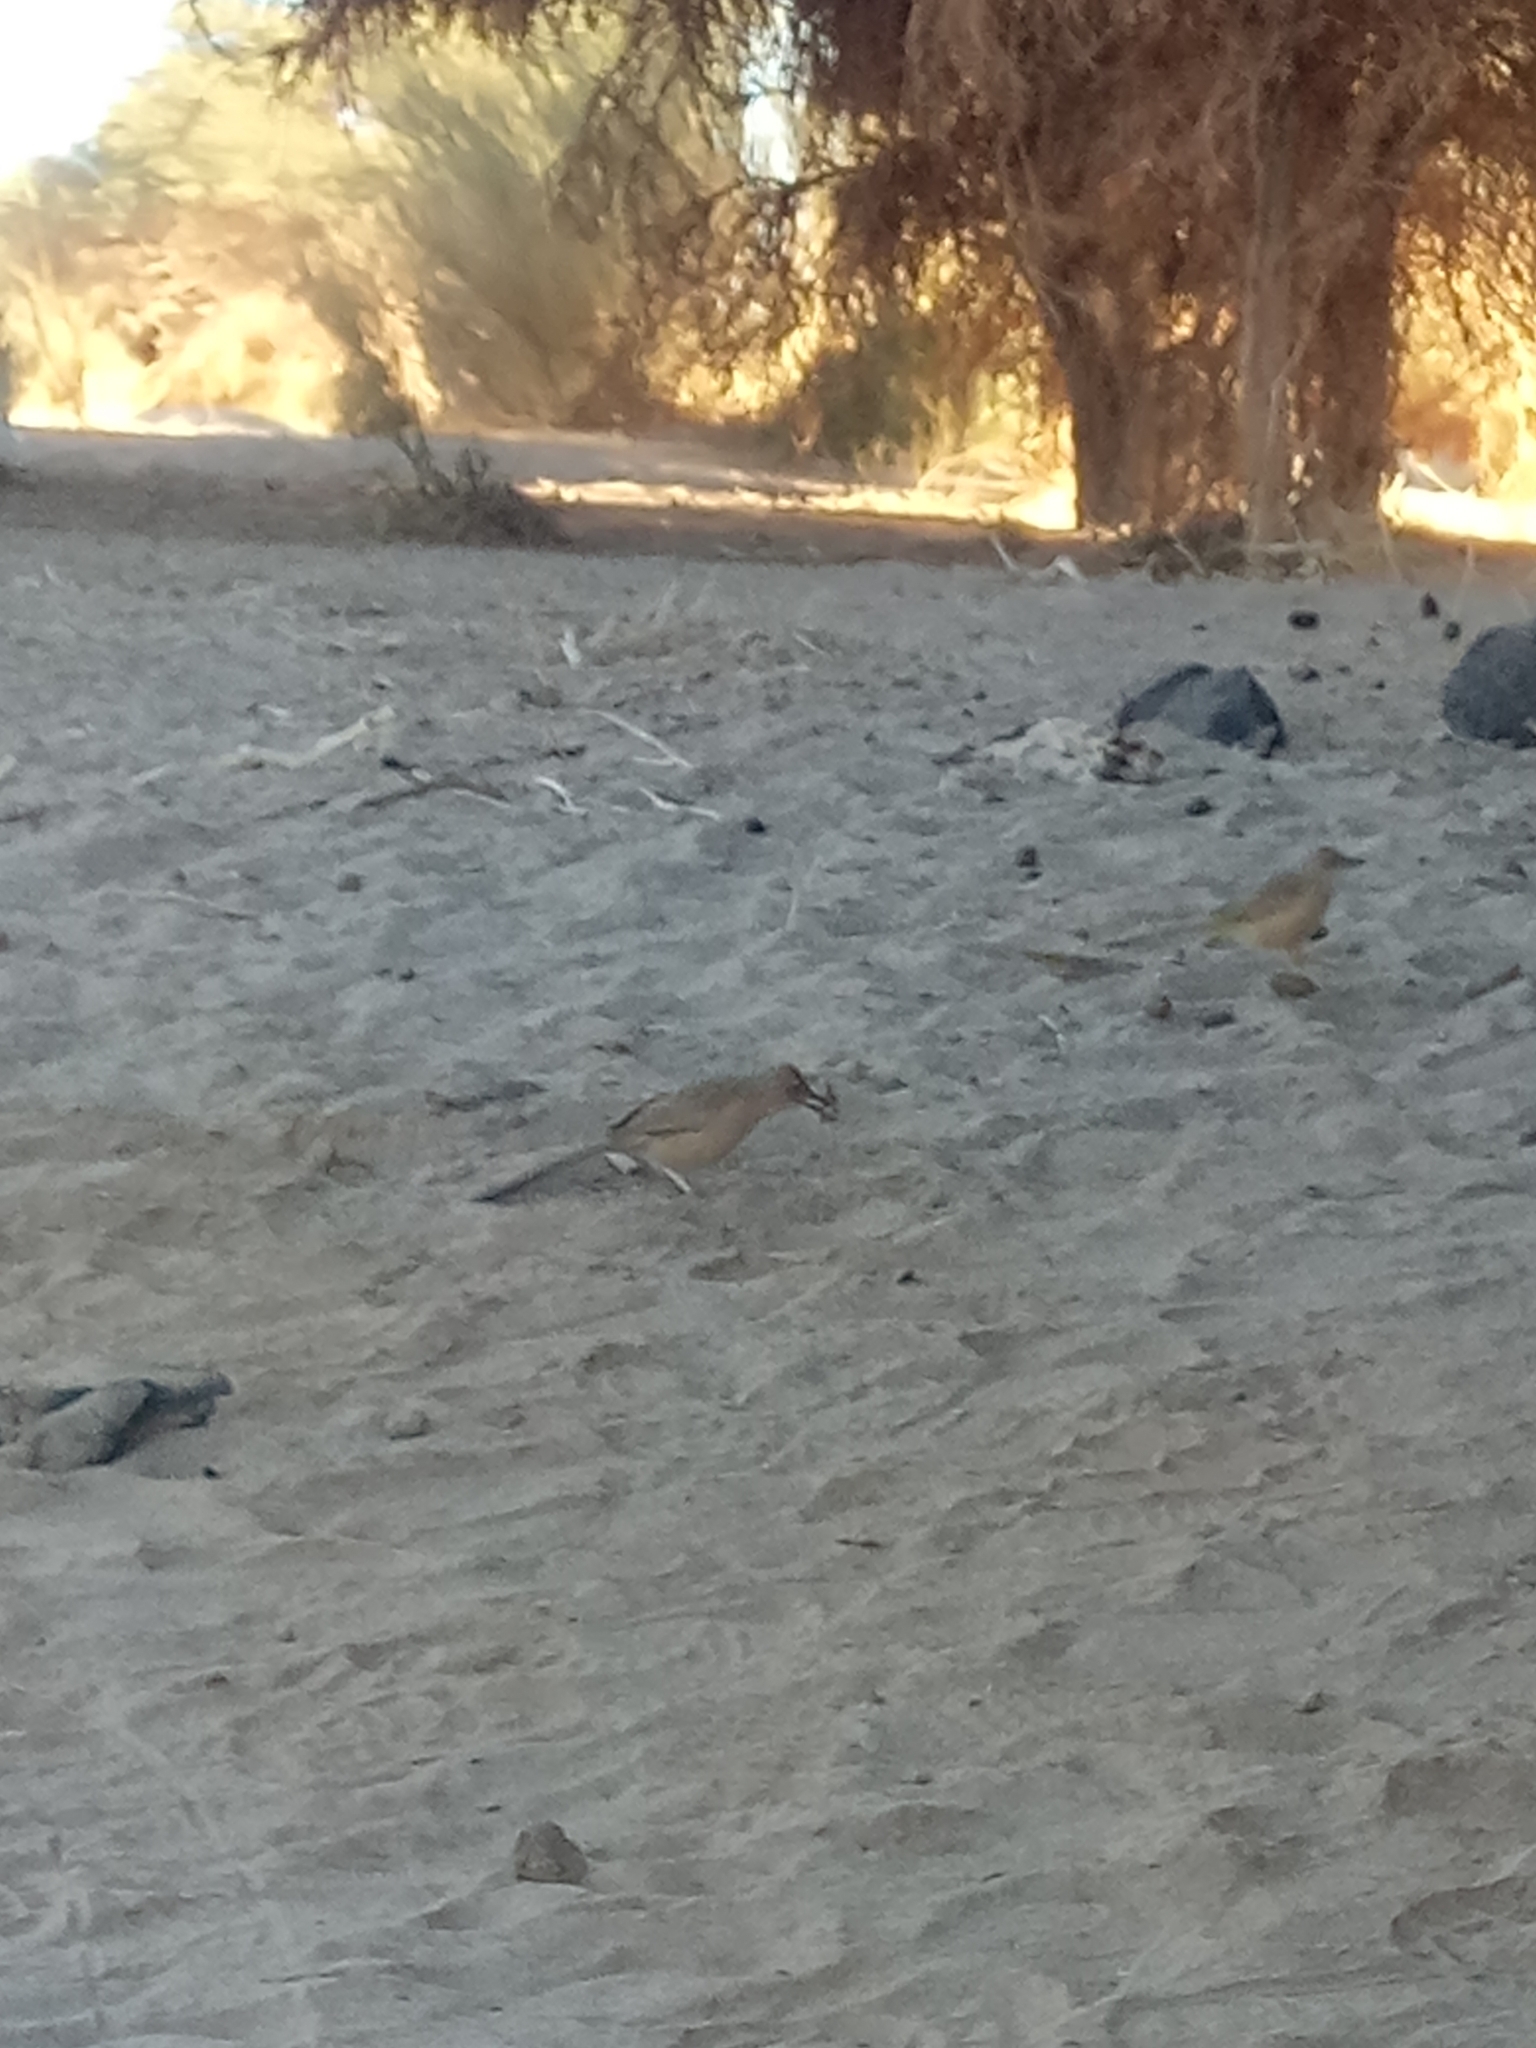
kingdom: Animalia
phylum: Chordata
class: Aves
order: Passeriformes
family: Leiothrichidae
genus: Turdoides
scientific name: Turdoides fulva
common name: Fulvous babbler
